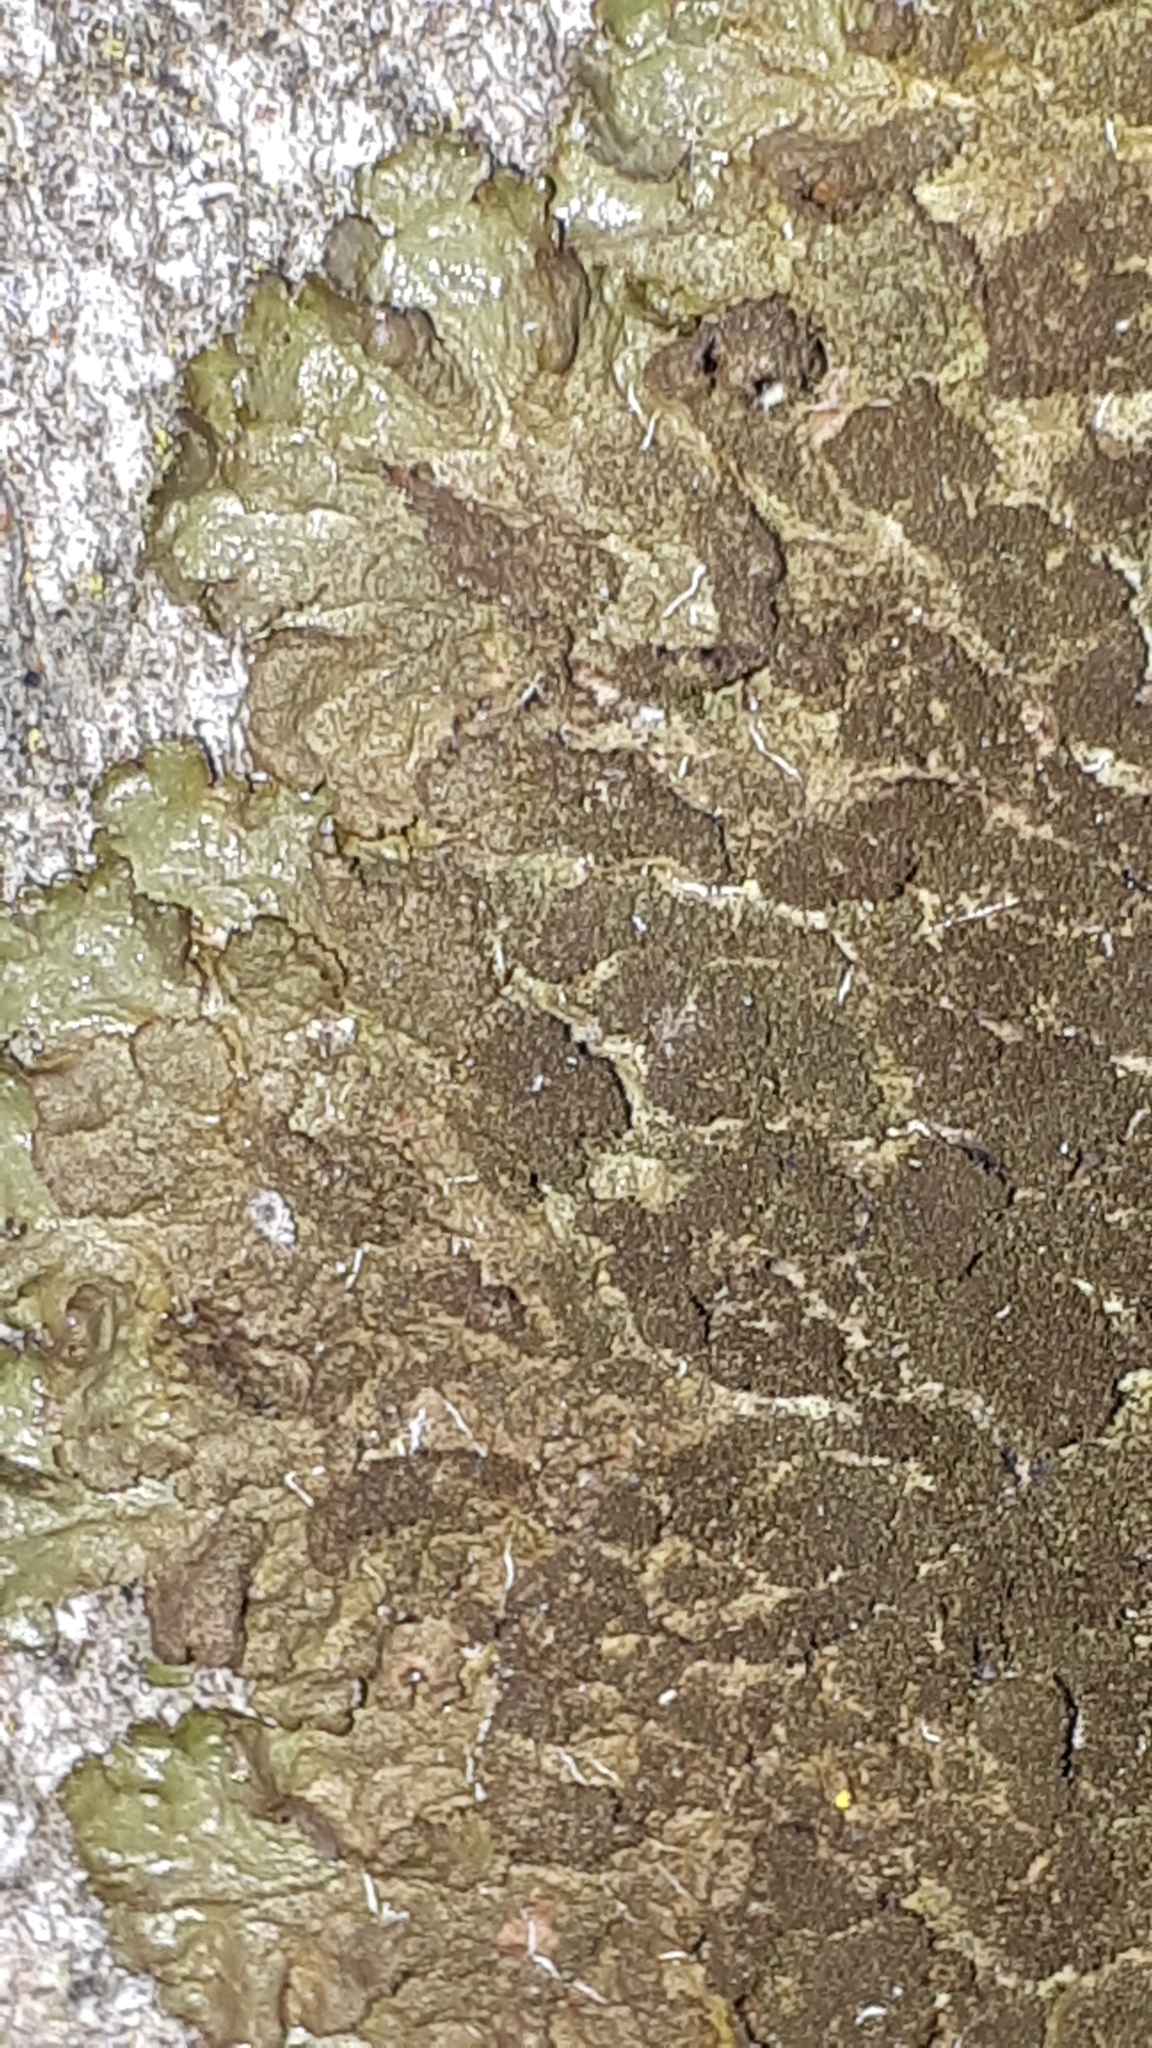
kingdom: Fungi
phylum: Ascomycota
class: Lecanoromycetes
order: Lecanorales
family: Parmeliaceae
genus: Melanelixia
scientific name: Melanelixia glabratula
